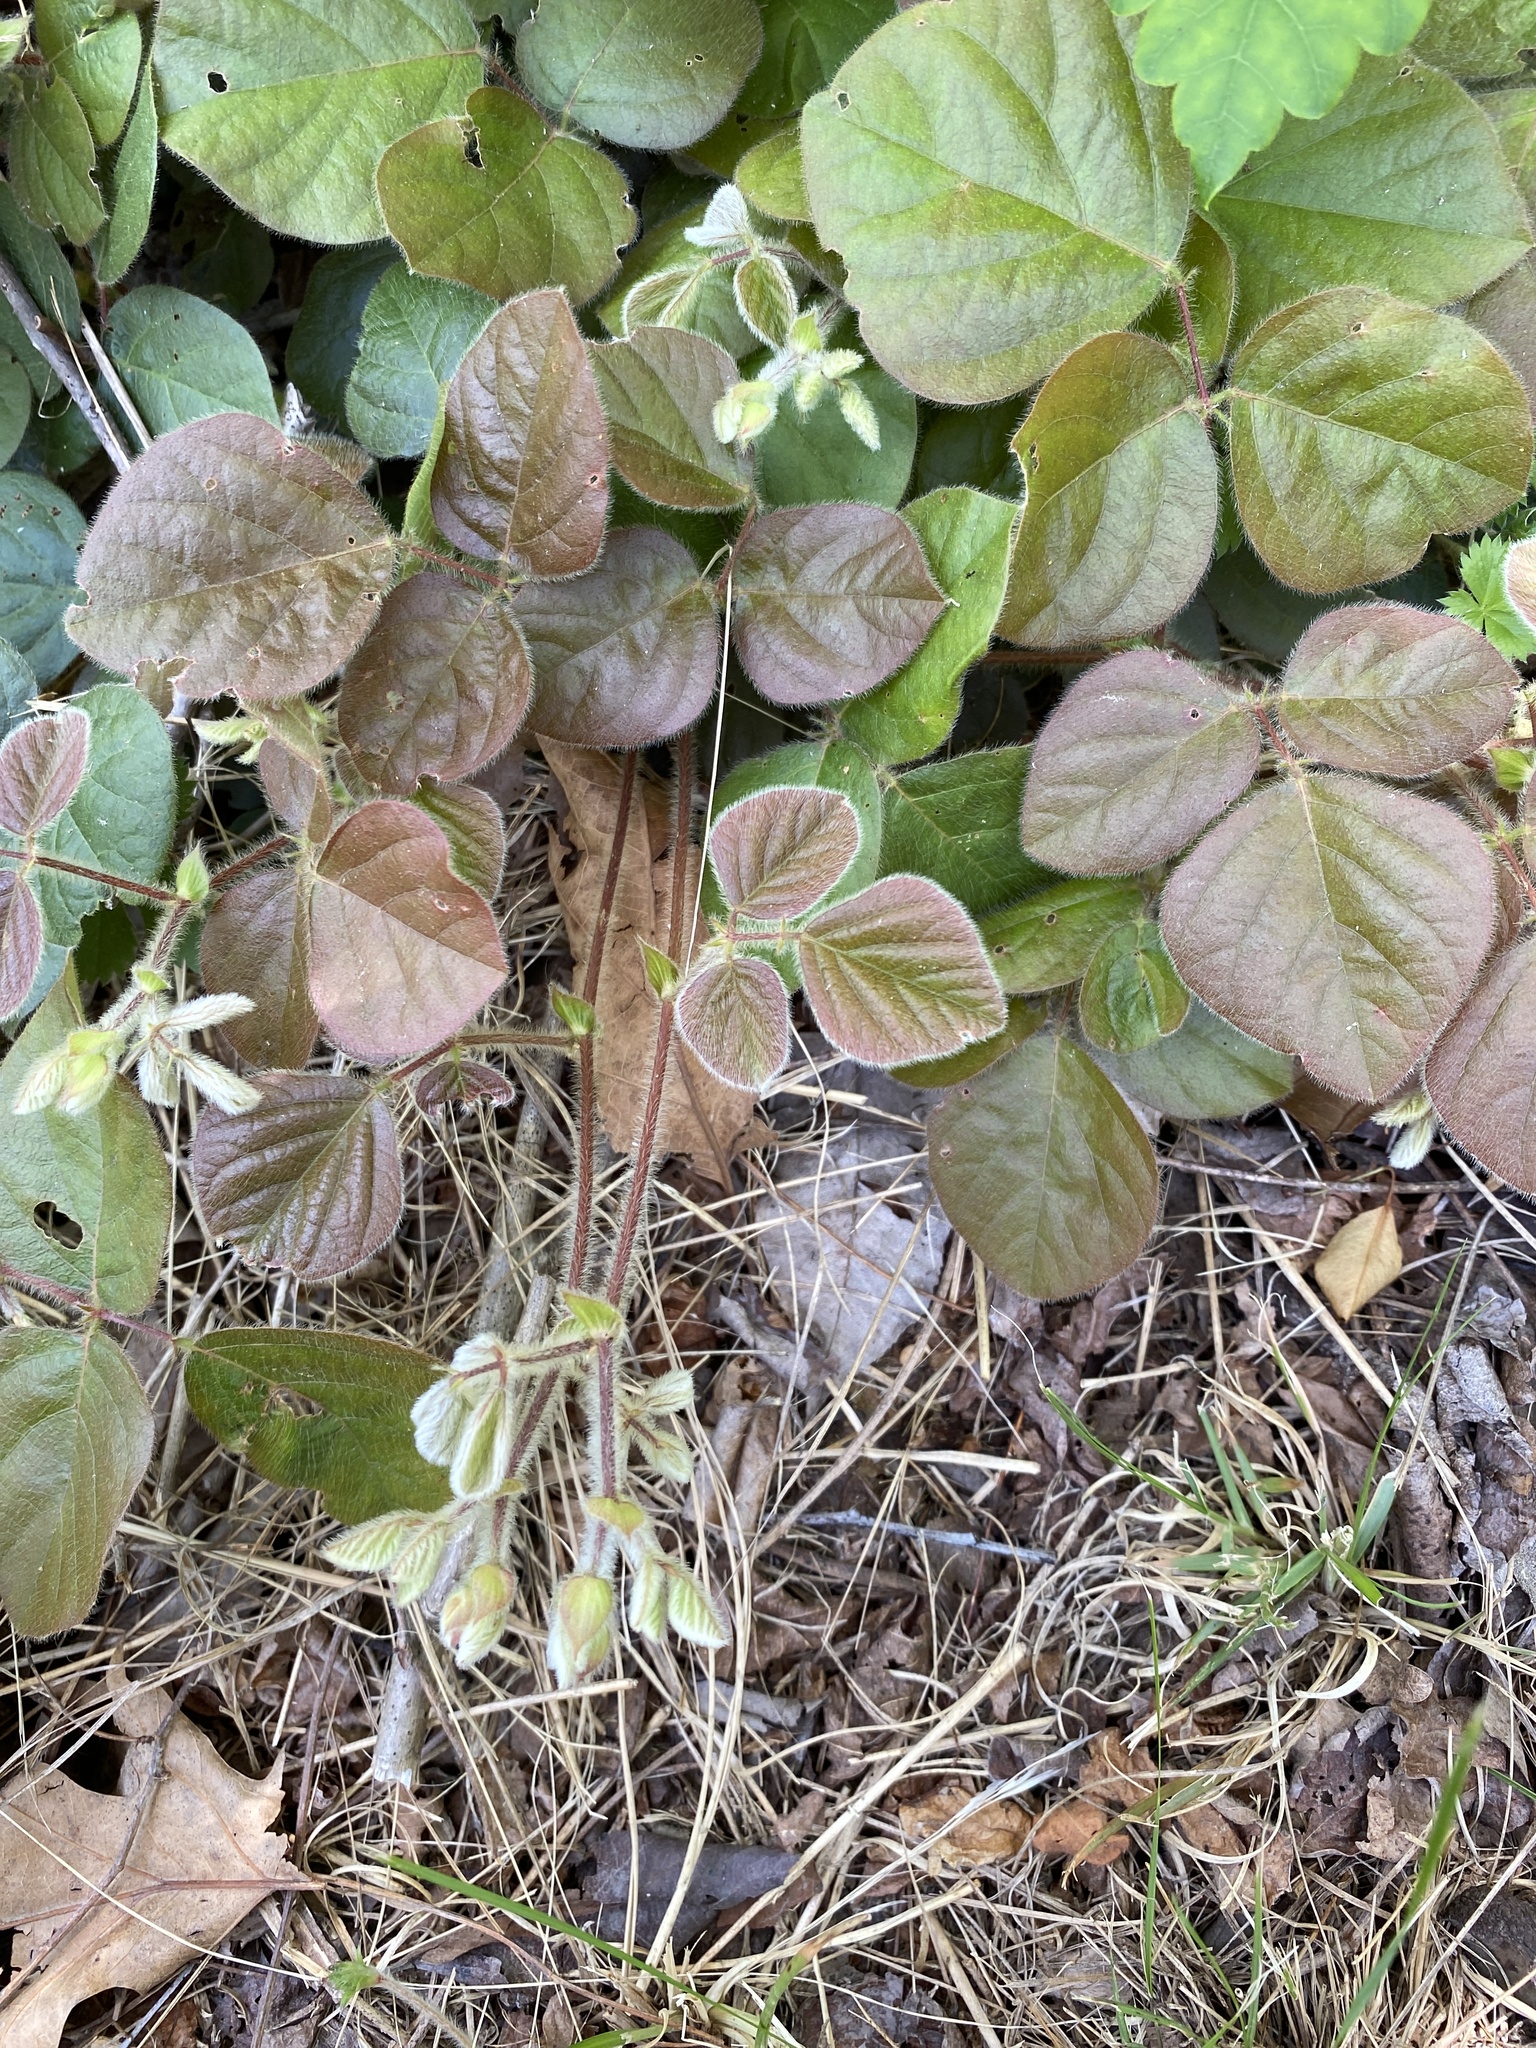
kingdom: Plantae
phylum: Tracheophyta
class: Magnoliopsida
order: Fabales
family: Fabaceae
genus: Desmodium
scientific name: Desmodium rotundifolium
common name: Dollarleaf
